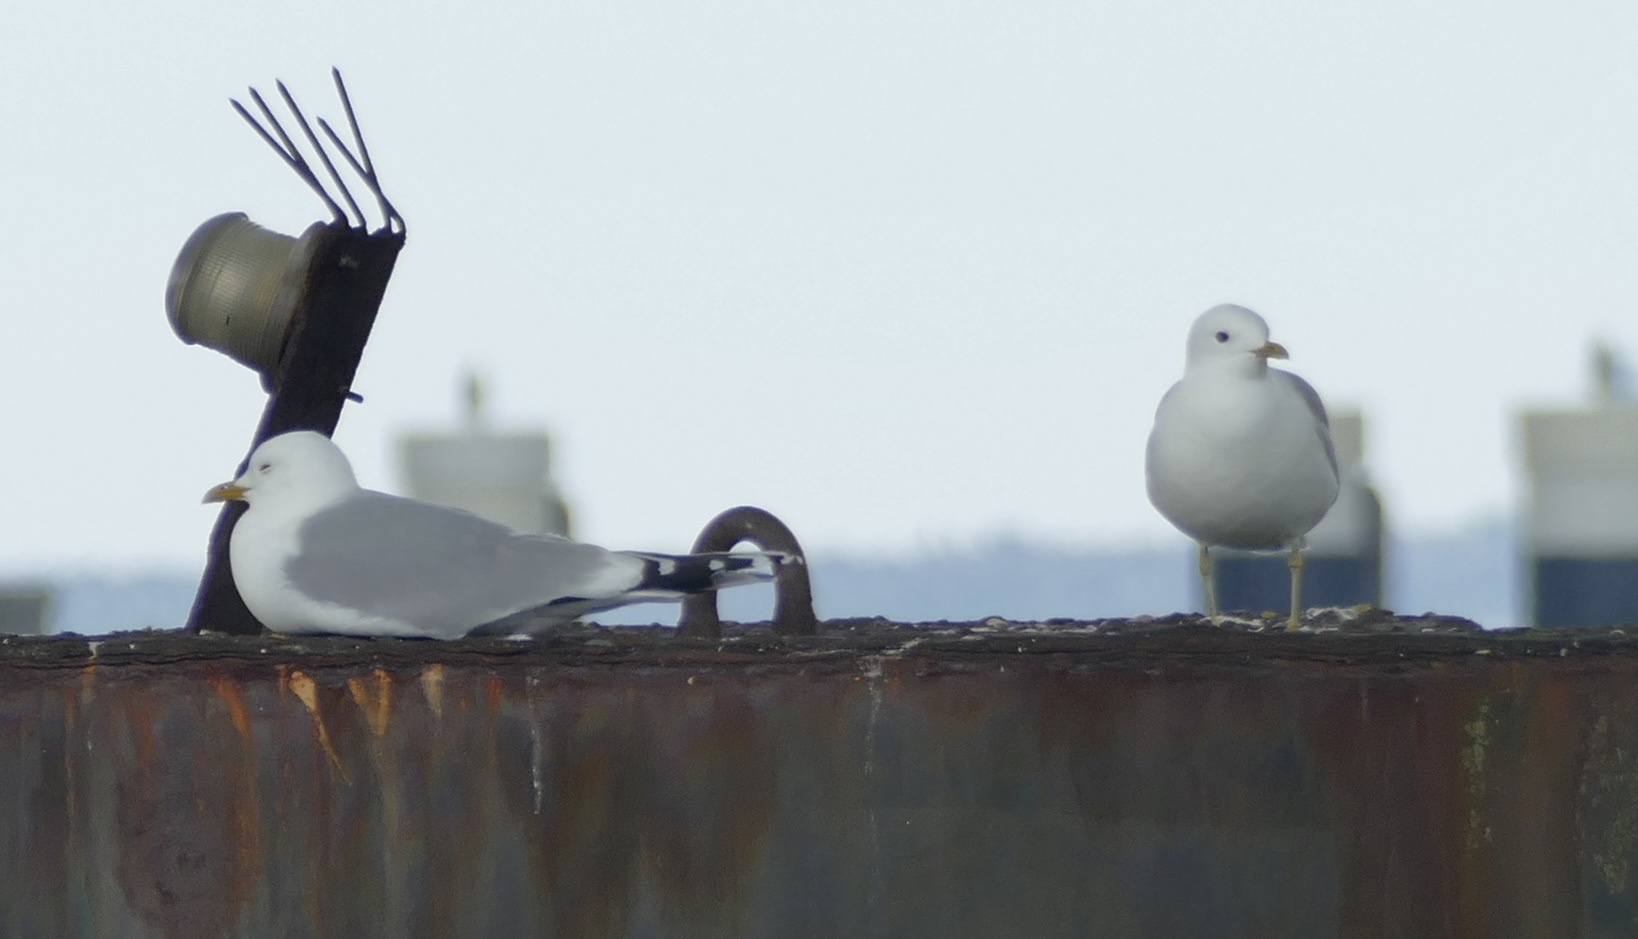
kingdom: Animalia
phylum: Chordata
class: Aves
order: Charadriiformes
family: Laridae
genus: Larus
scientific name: Larus canus
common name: Mew gull
